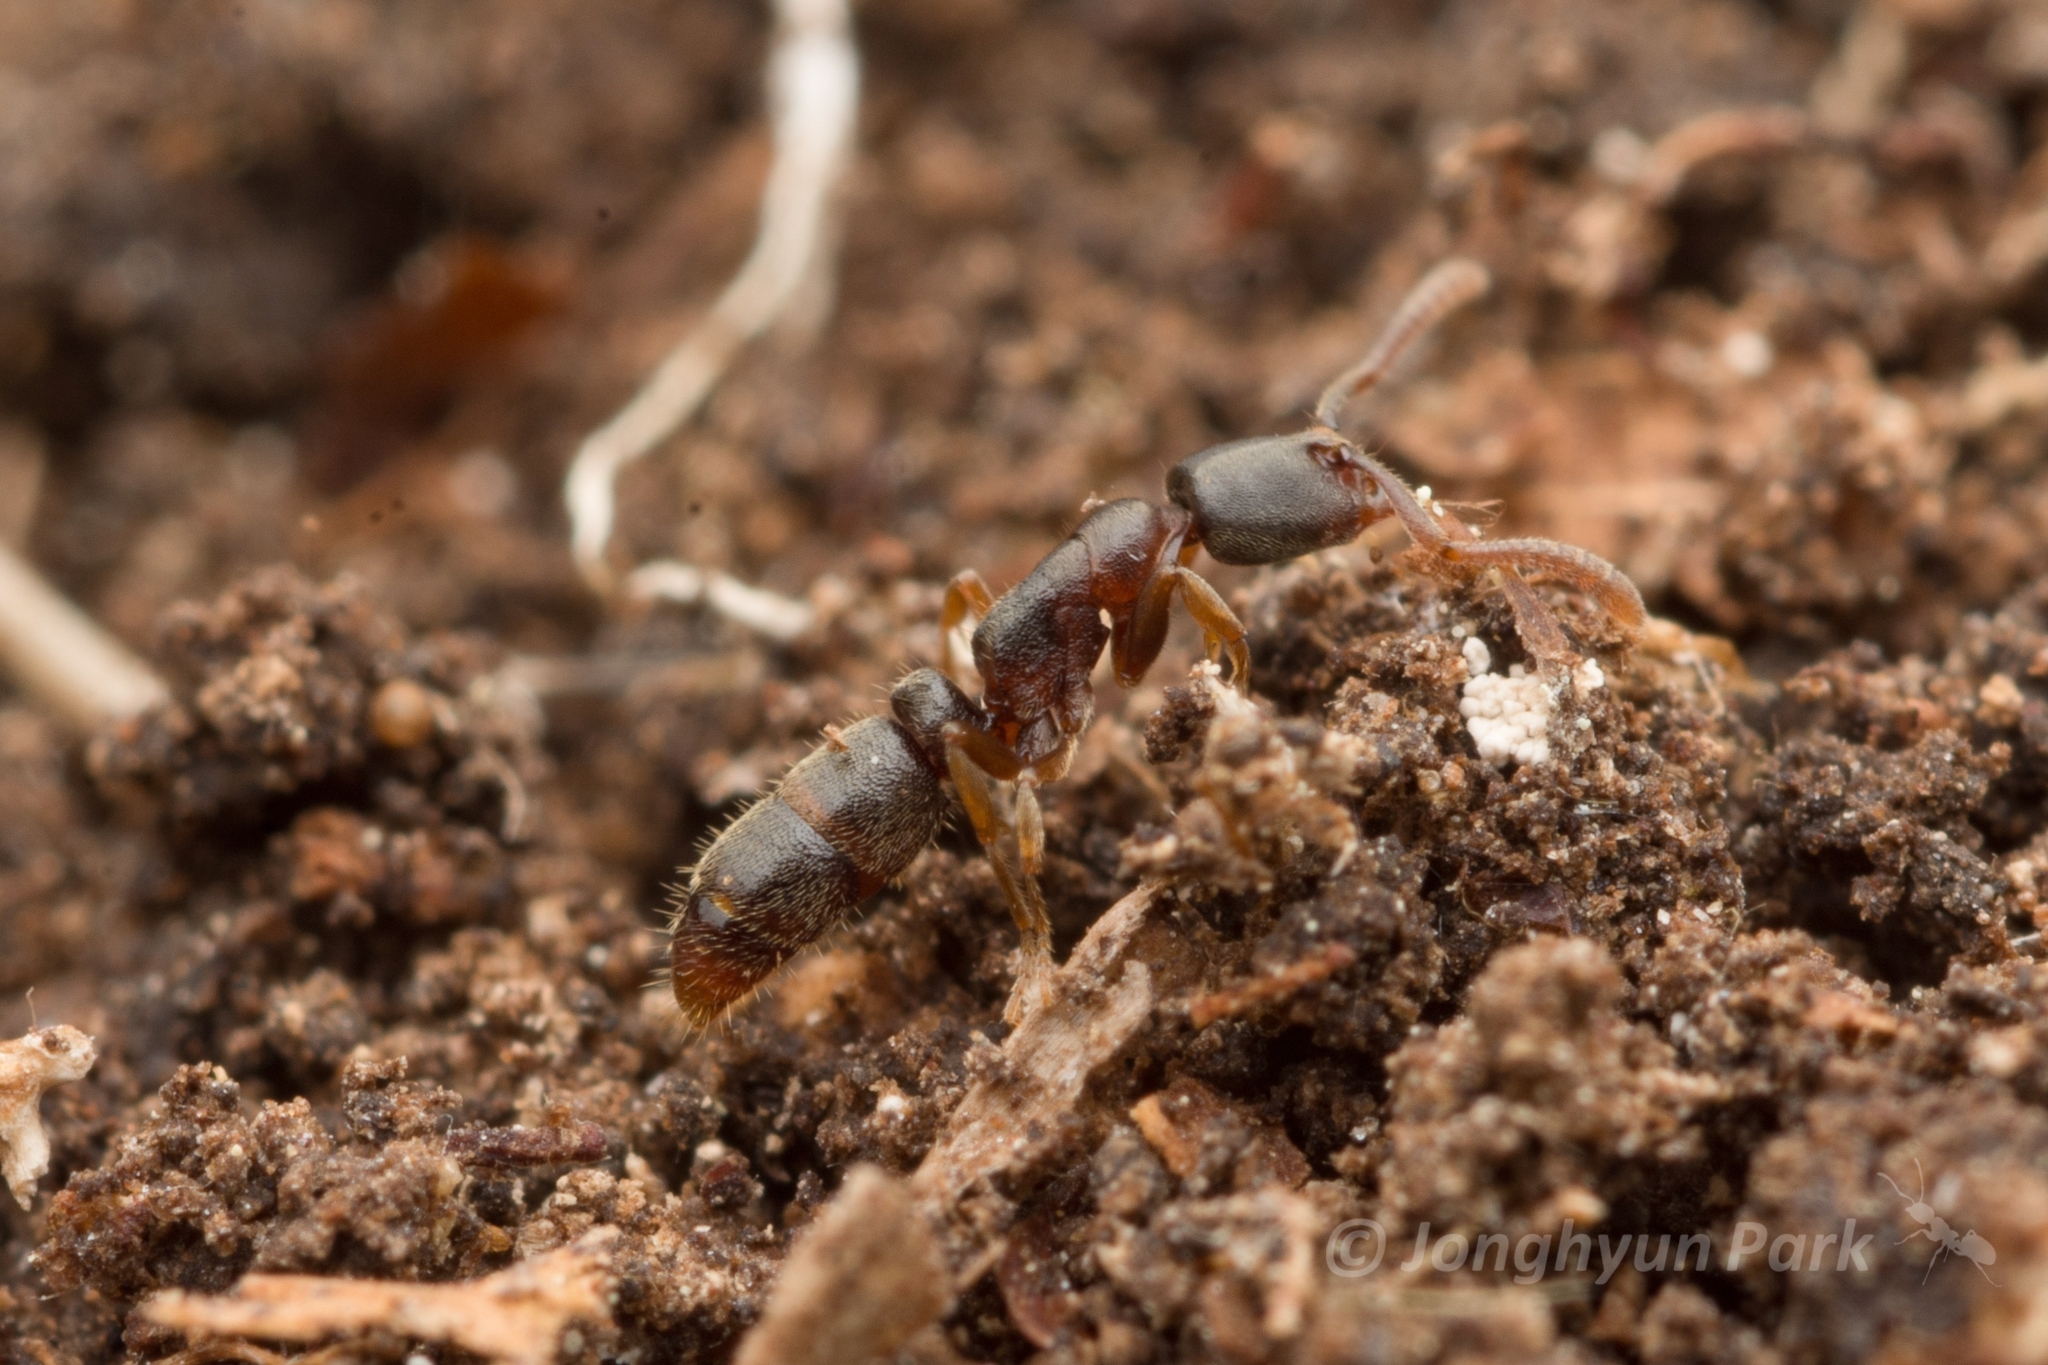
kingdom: Animalia
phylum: Arthropoda
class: Insecta
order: Hymenoptera
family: Formicidae
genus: Ponera
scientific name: Ponera japonica
